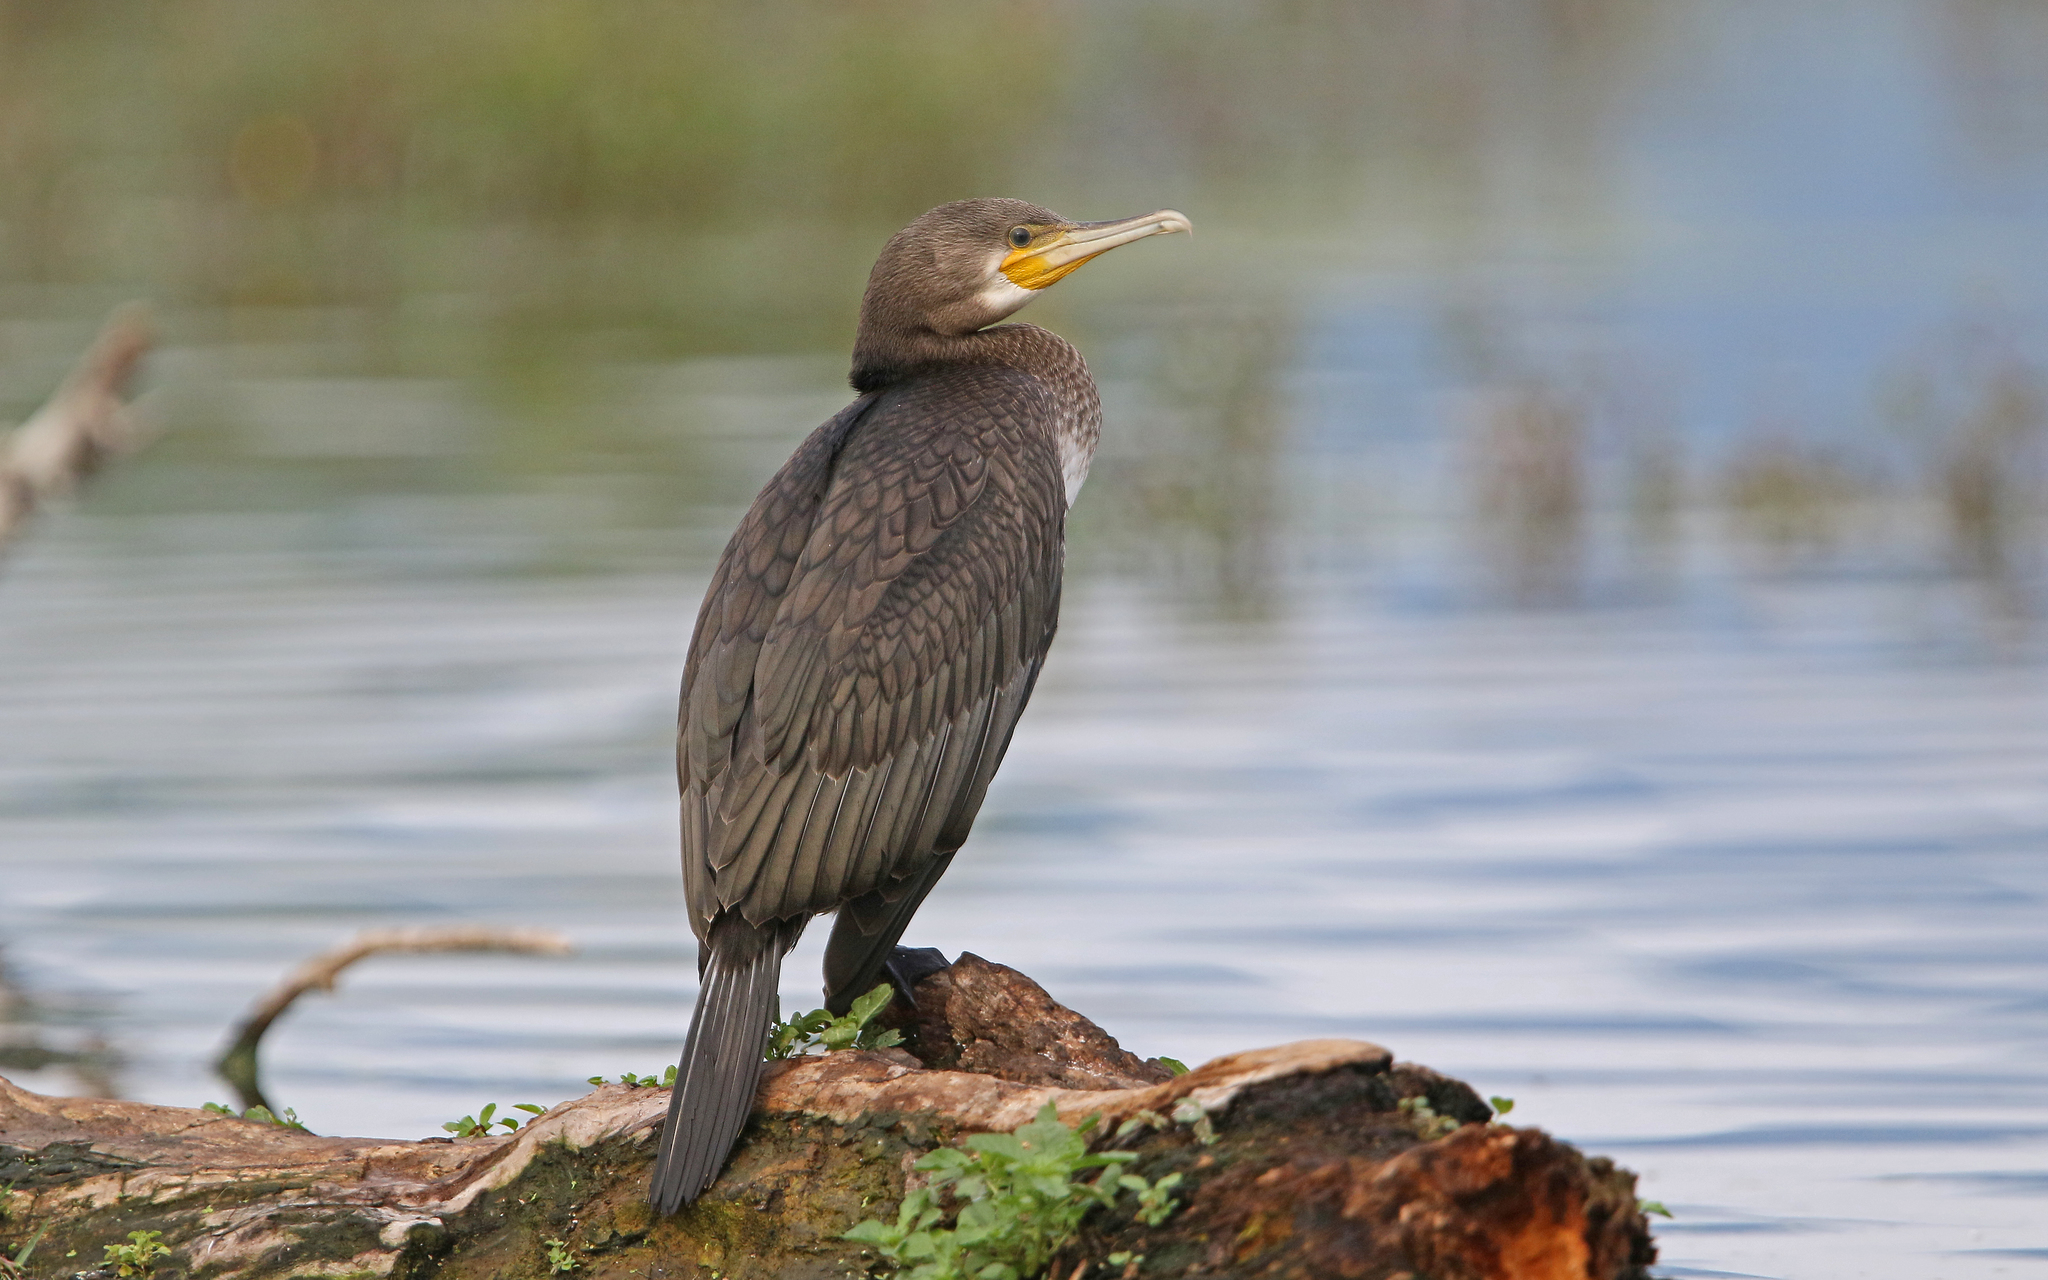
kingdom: Animalia
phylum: Chordata
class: Aves
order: Suliformes
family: Phalacrocoracidae
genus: Phalacrocorax
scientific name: Phalacrocorax carbo
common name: Great cormorant
